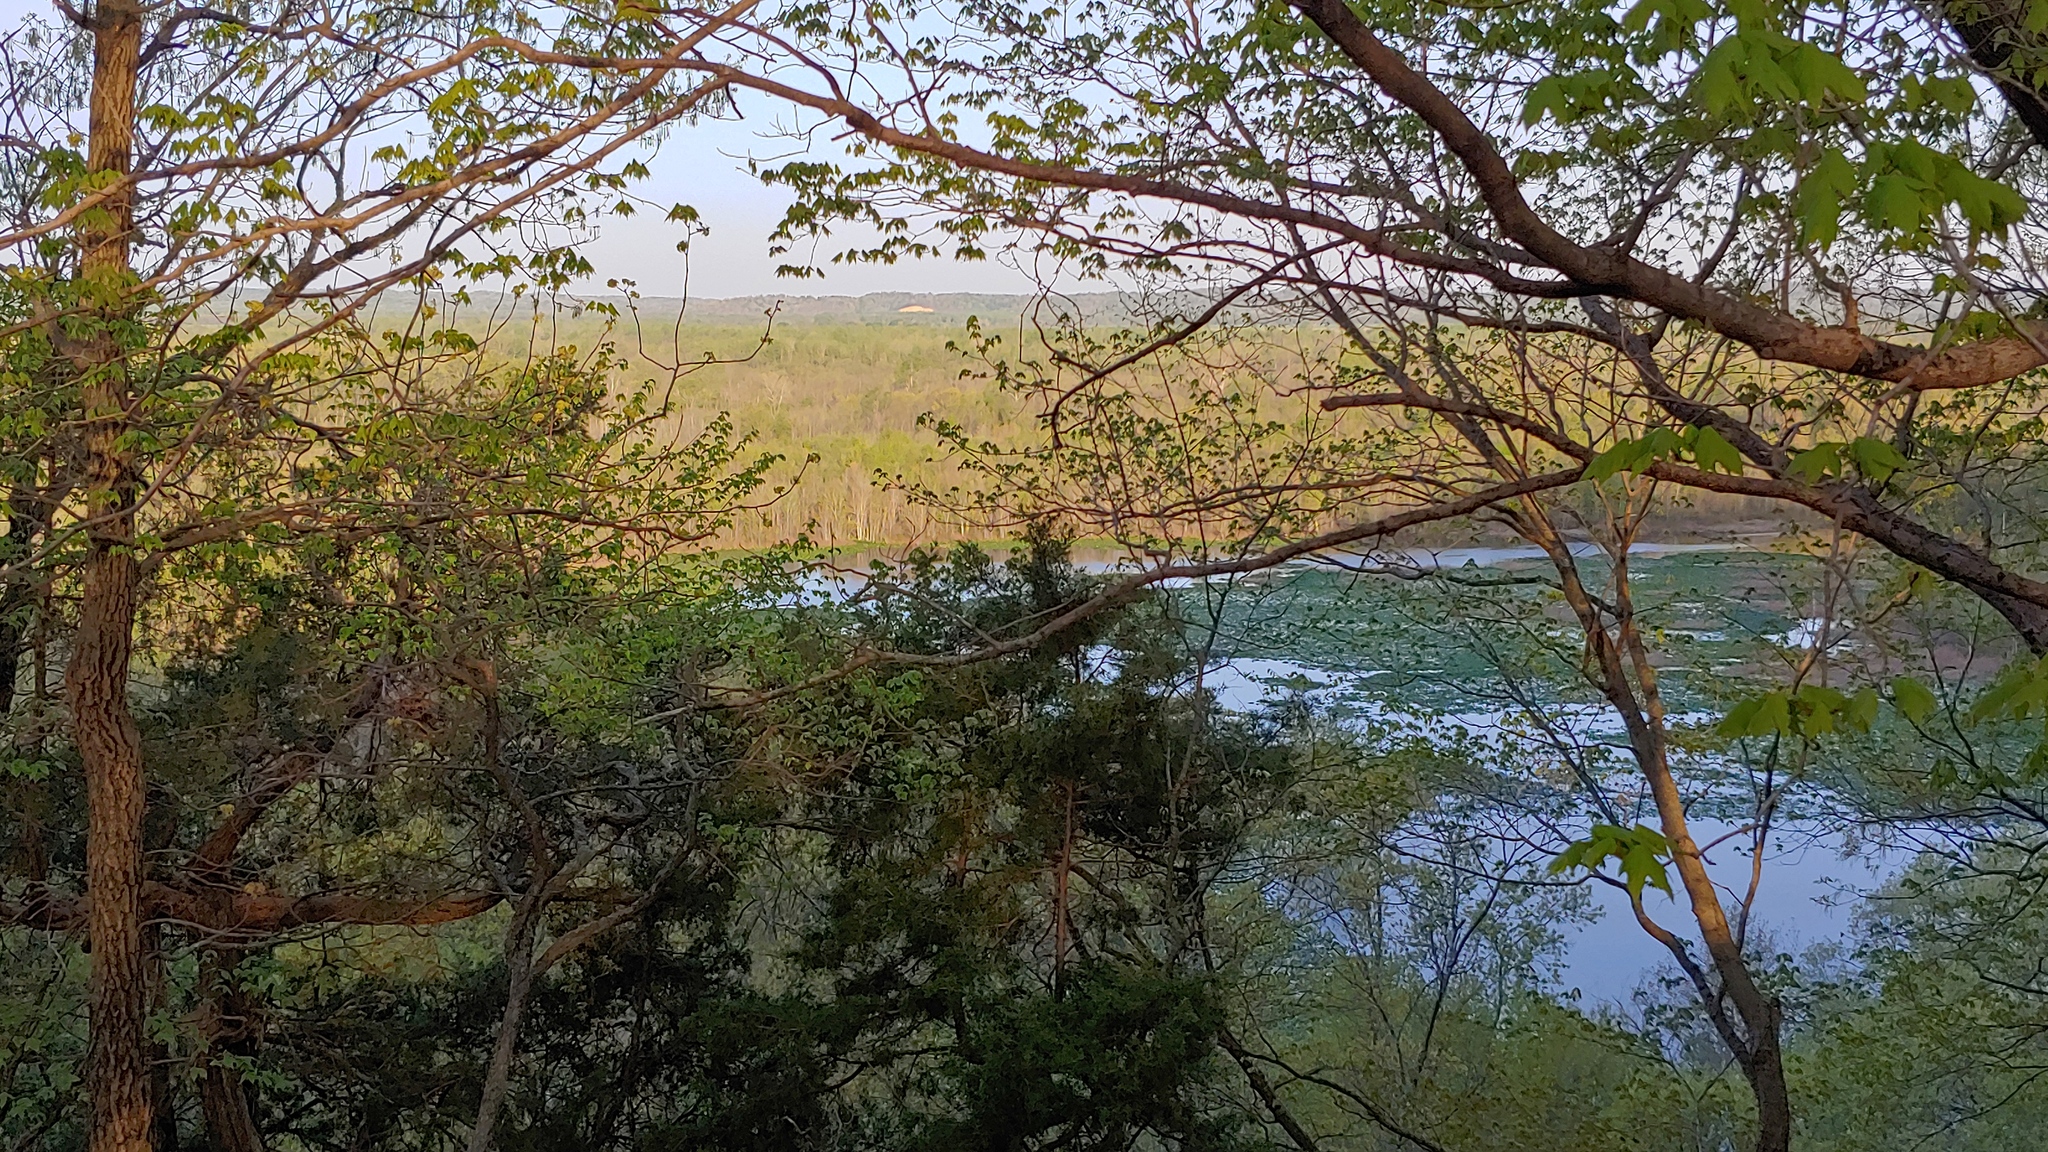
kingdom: Plantae
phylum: Tracheophyta
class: Pinopsida
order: Pinales
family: Cupressaceae
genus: Juniperus
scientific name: Juniperus virginiana
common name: Red juniper
